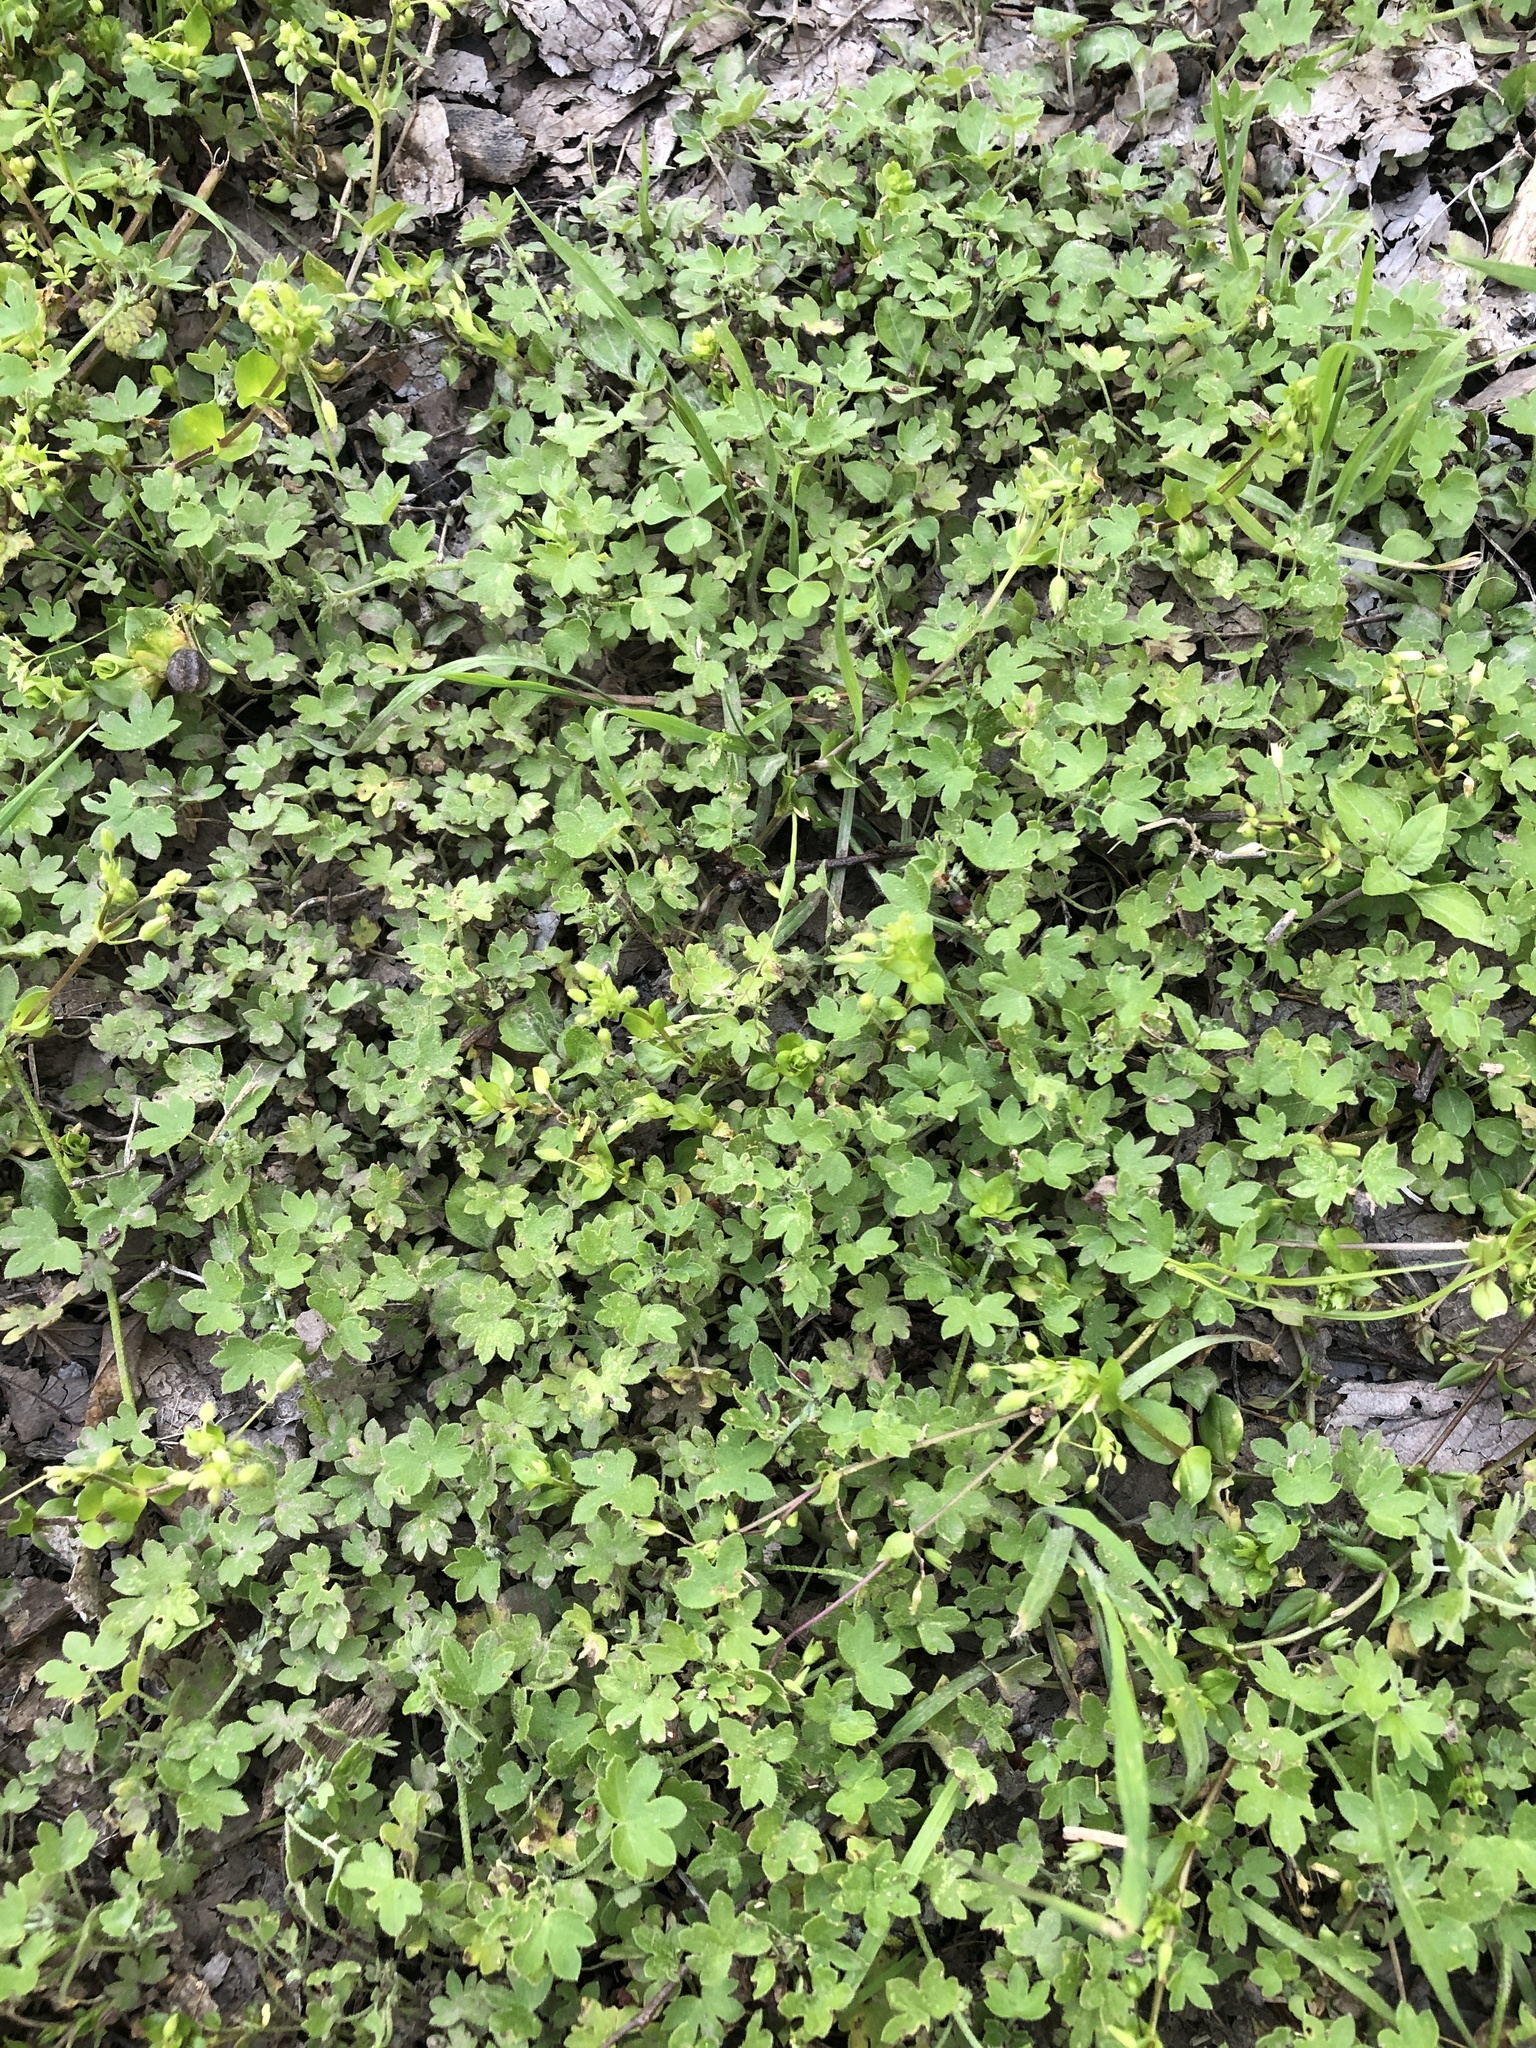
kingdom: Plantae
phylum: Tracheophyta
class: Magnoliopsida
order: Apiales
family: Apiaceae
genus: Bowlesia
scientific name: Bowlesia incana
